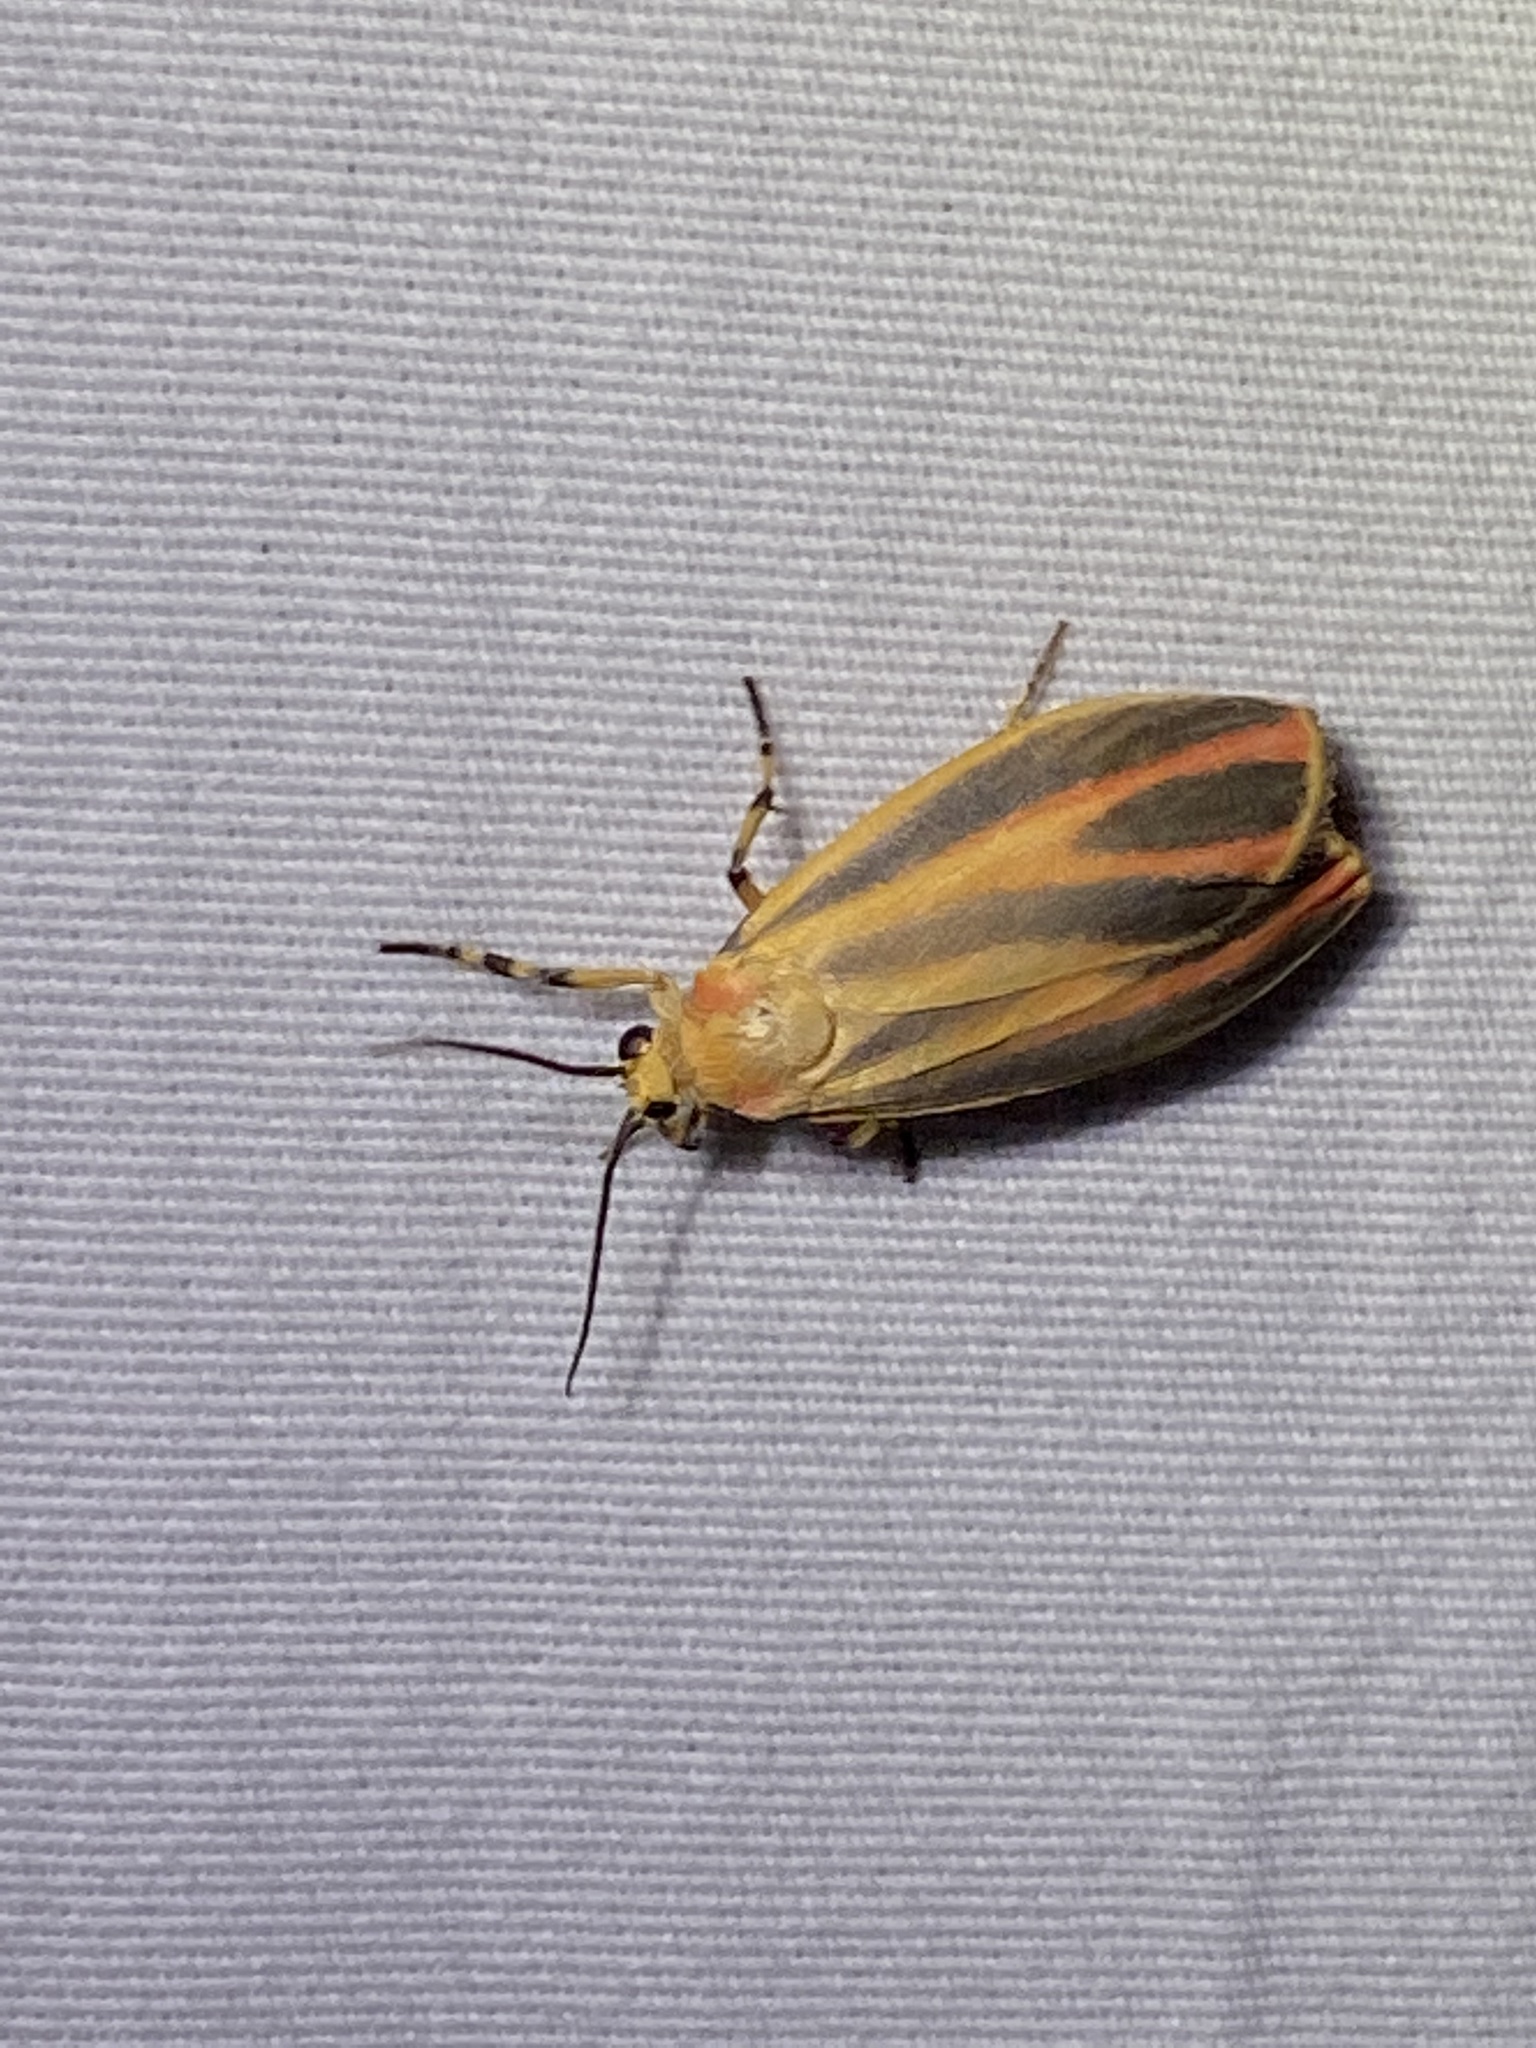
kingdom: Animalia
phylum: Arthropoda
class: Insecta
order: Lepidoptera
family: Erebidae
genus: Hypoprepia
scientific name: Hypoprepia fucosa
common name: Painted lichen moth
